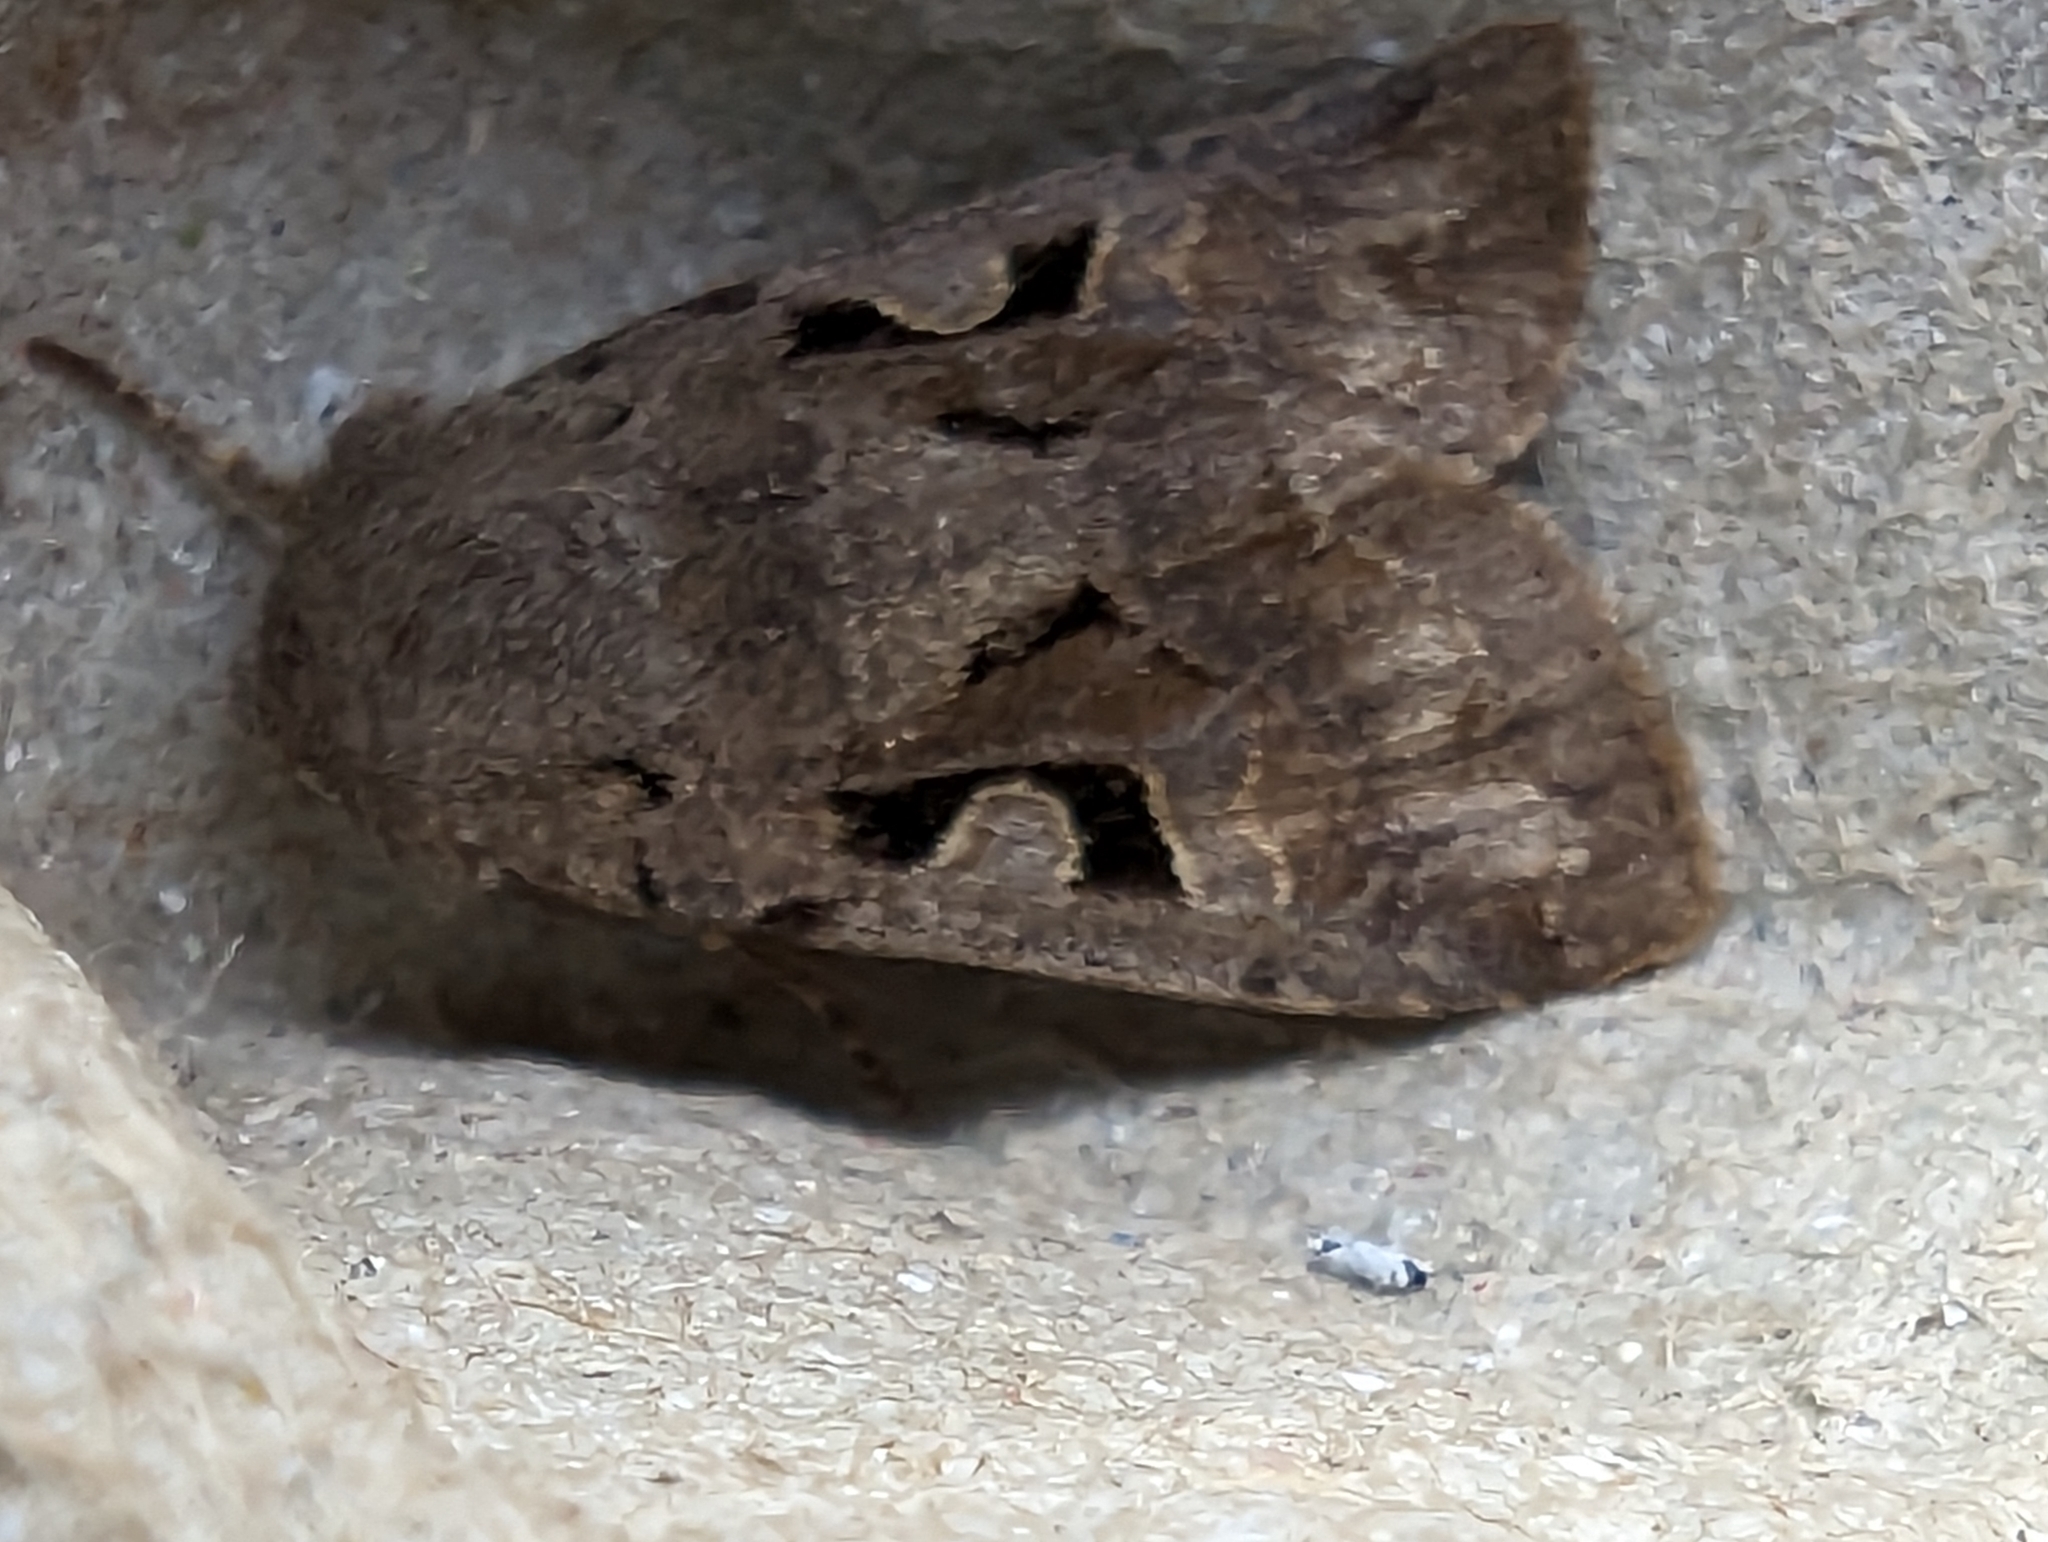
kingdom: Animalia
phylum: Arthropoda
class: Insecta
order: Lepidoptera
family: Noctuidae
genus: Orthosia
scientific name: Orthosia gothica
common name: Hebrew character
